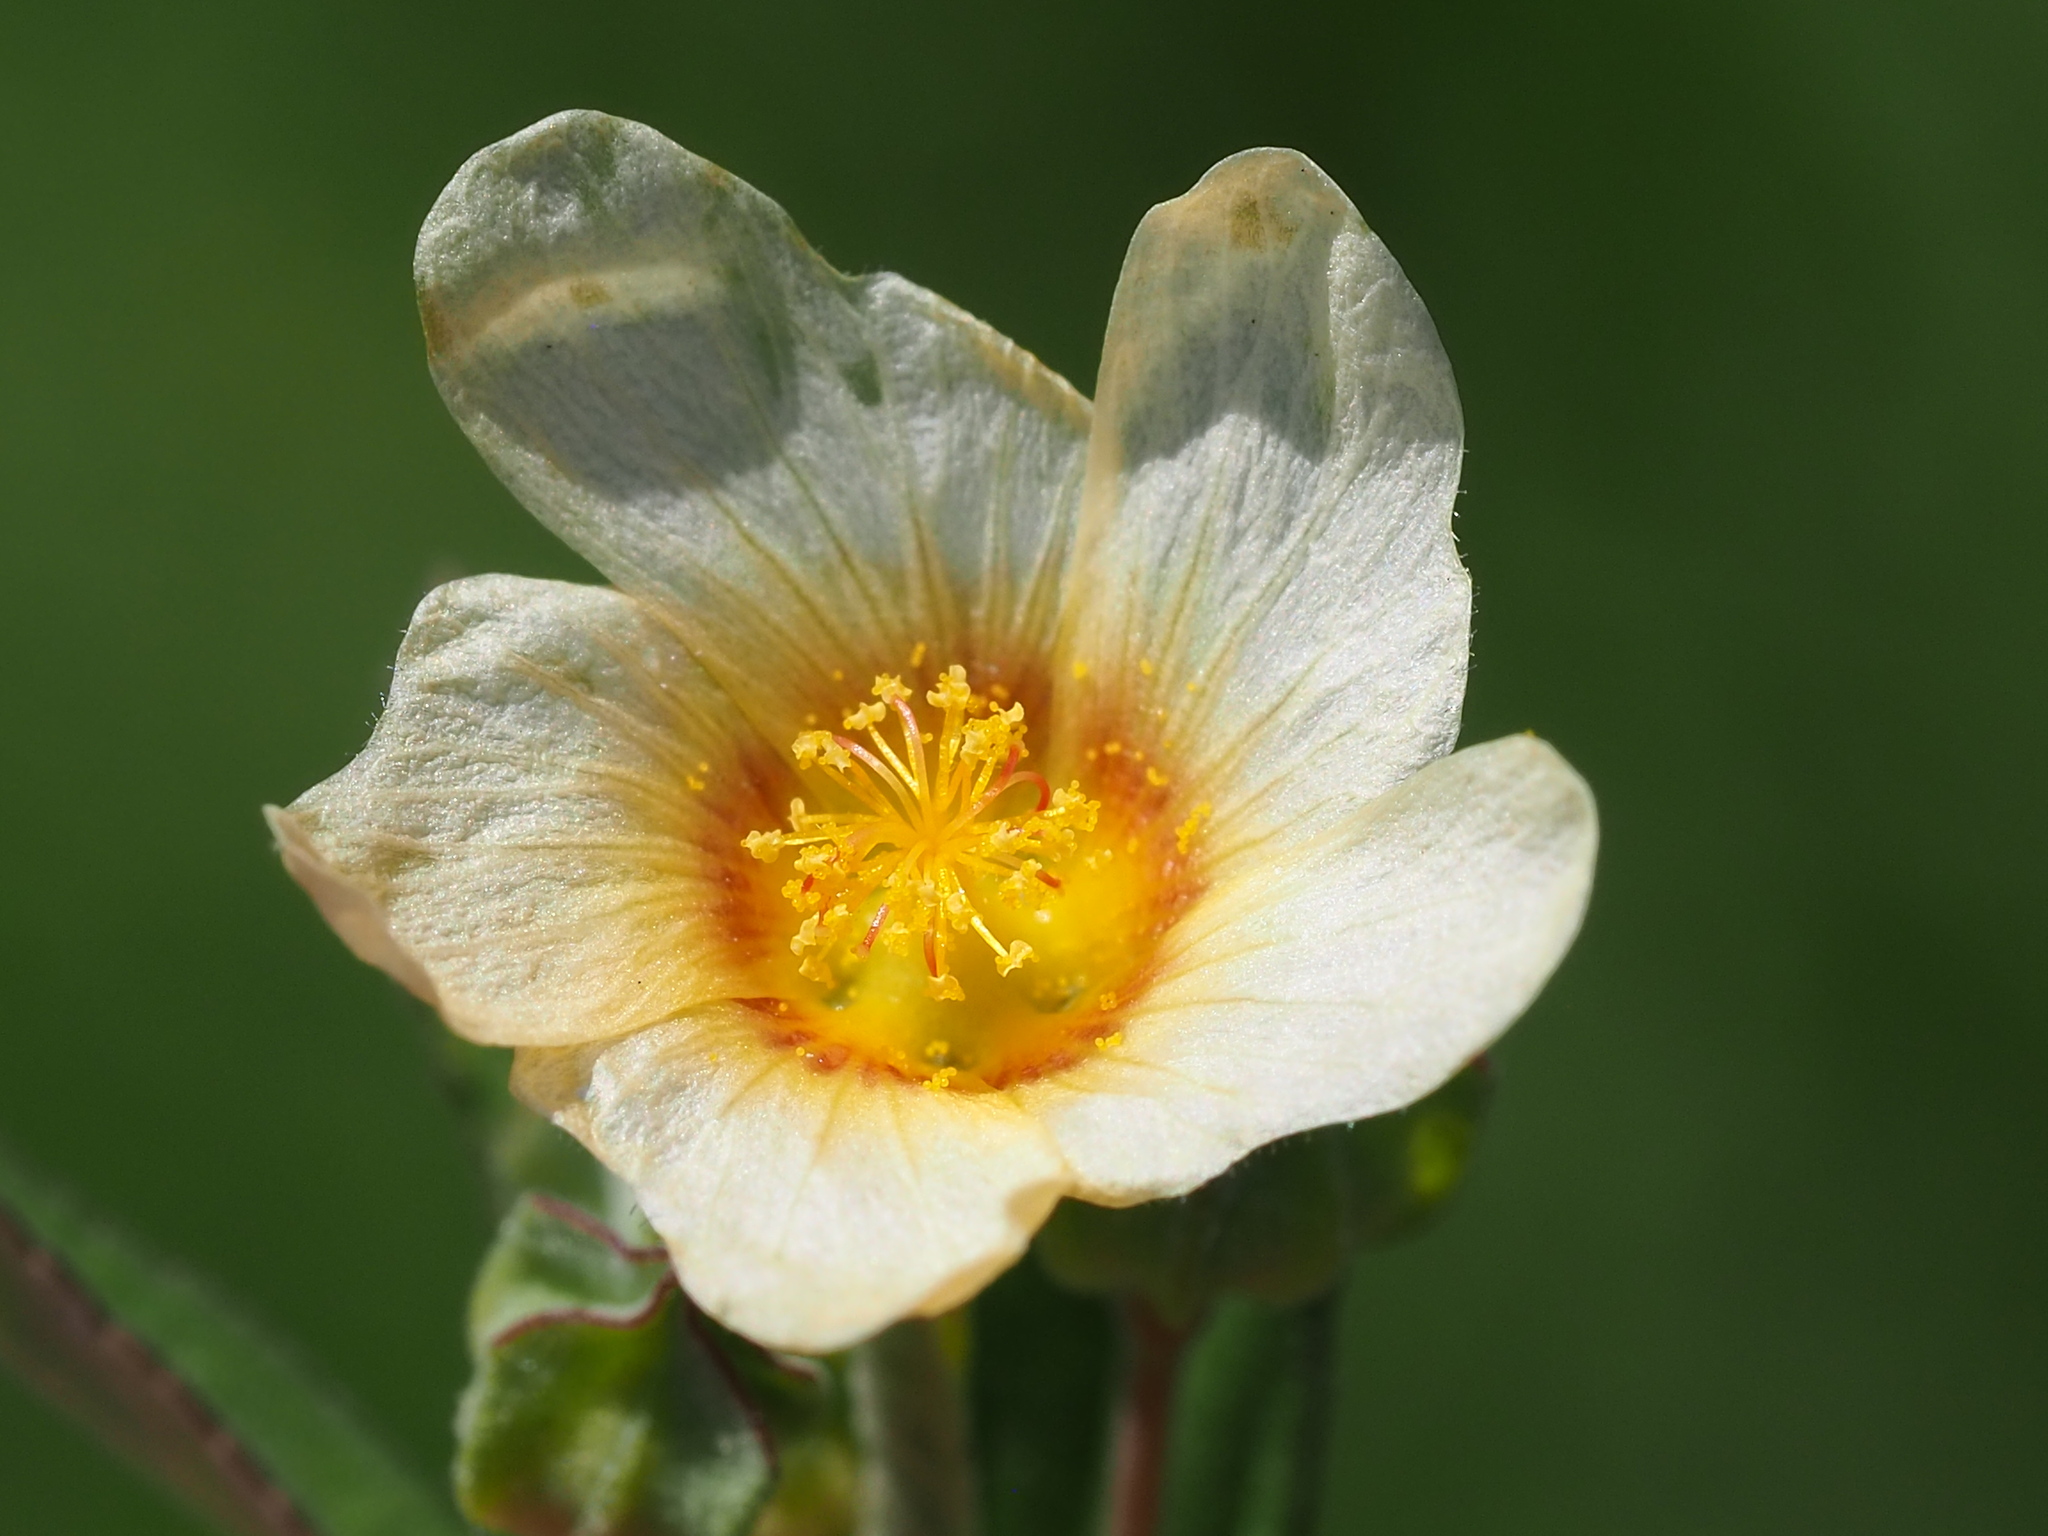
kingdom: Plantae
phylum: Tracheophyta
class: Magnoliopsida
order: Malvales
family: Malvaceae
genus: Sida
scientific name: Sida rhombifolia
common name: Queensland-hemp
